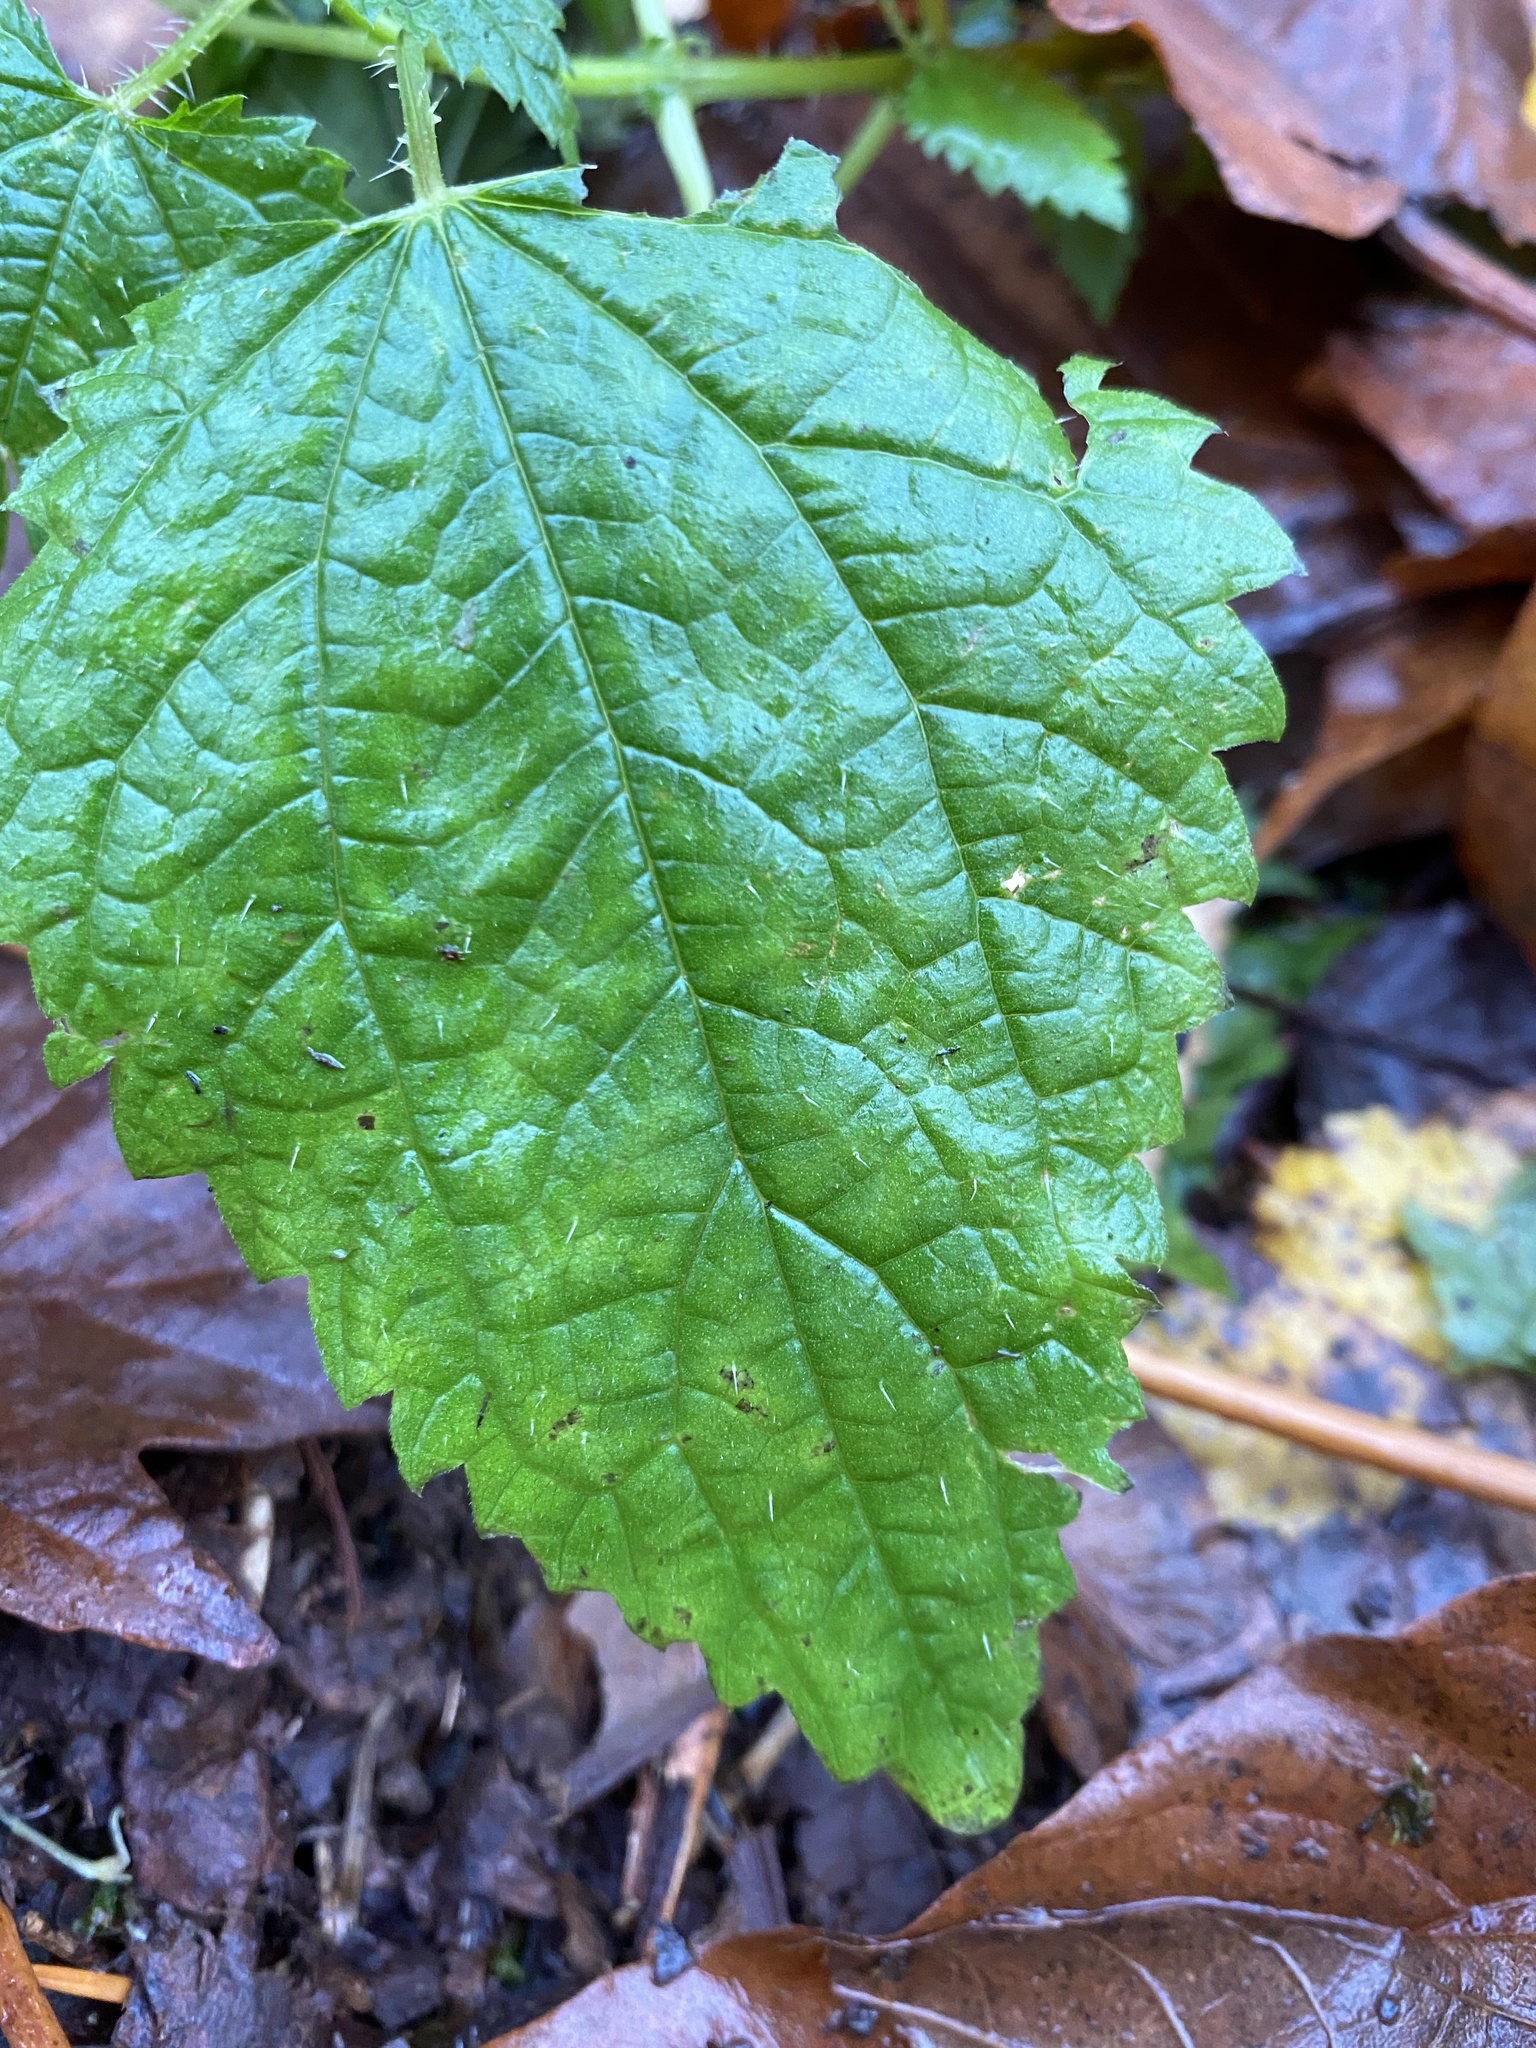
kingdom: Plantae
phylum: Tracheophyta
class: Magnoliopsida
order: Rosales
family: Urticaceae
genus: Urtica
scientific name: Urtica dioica
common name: Common nettle
